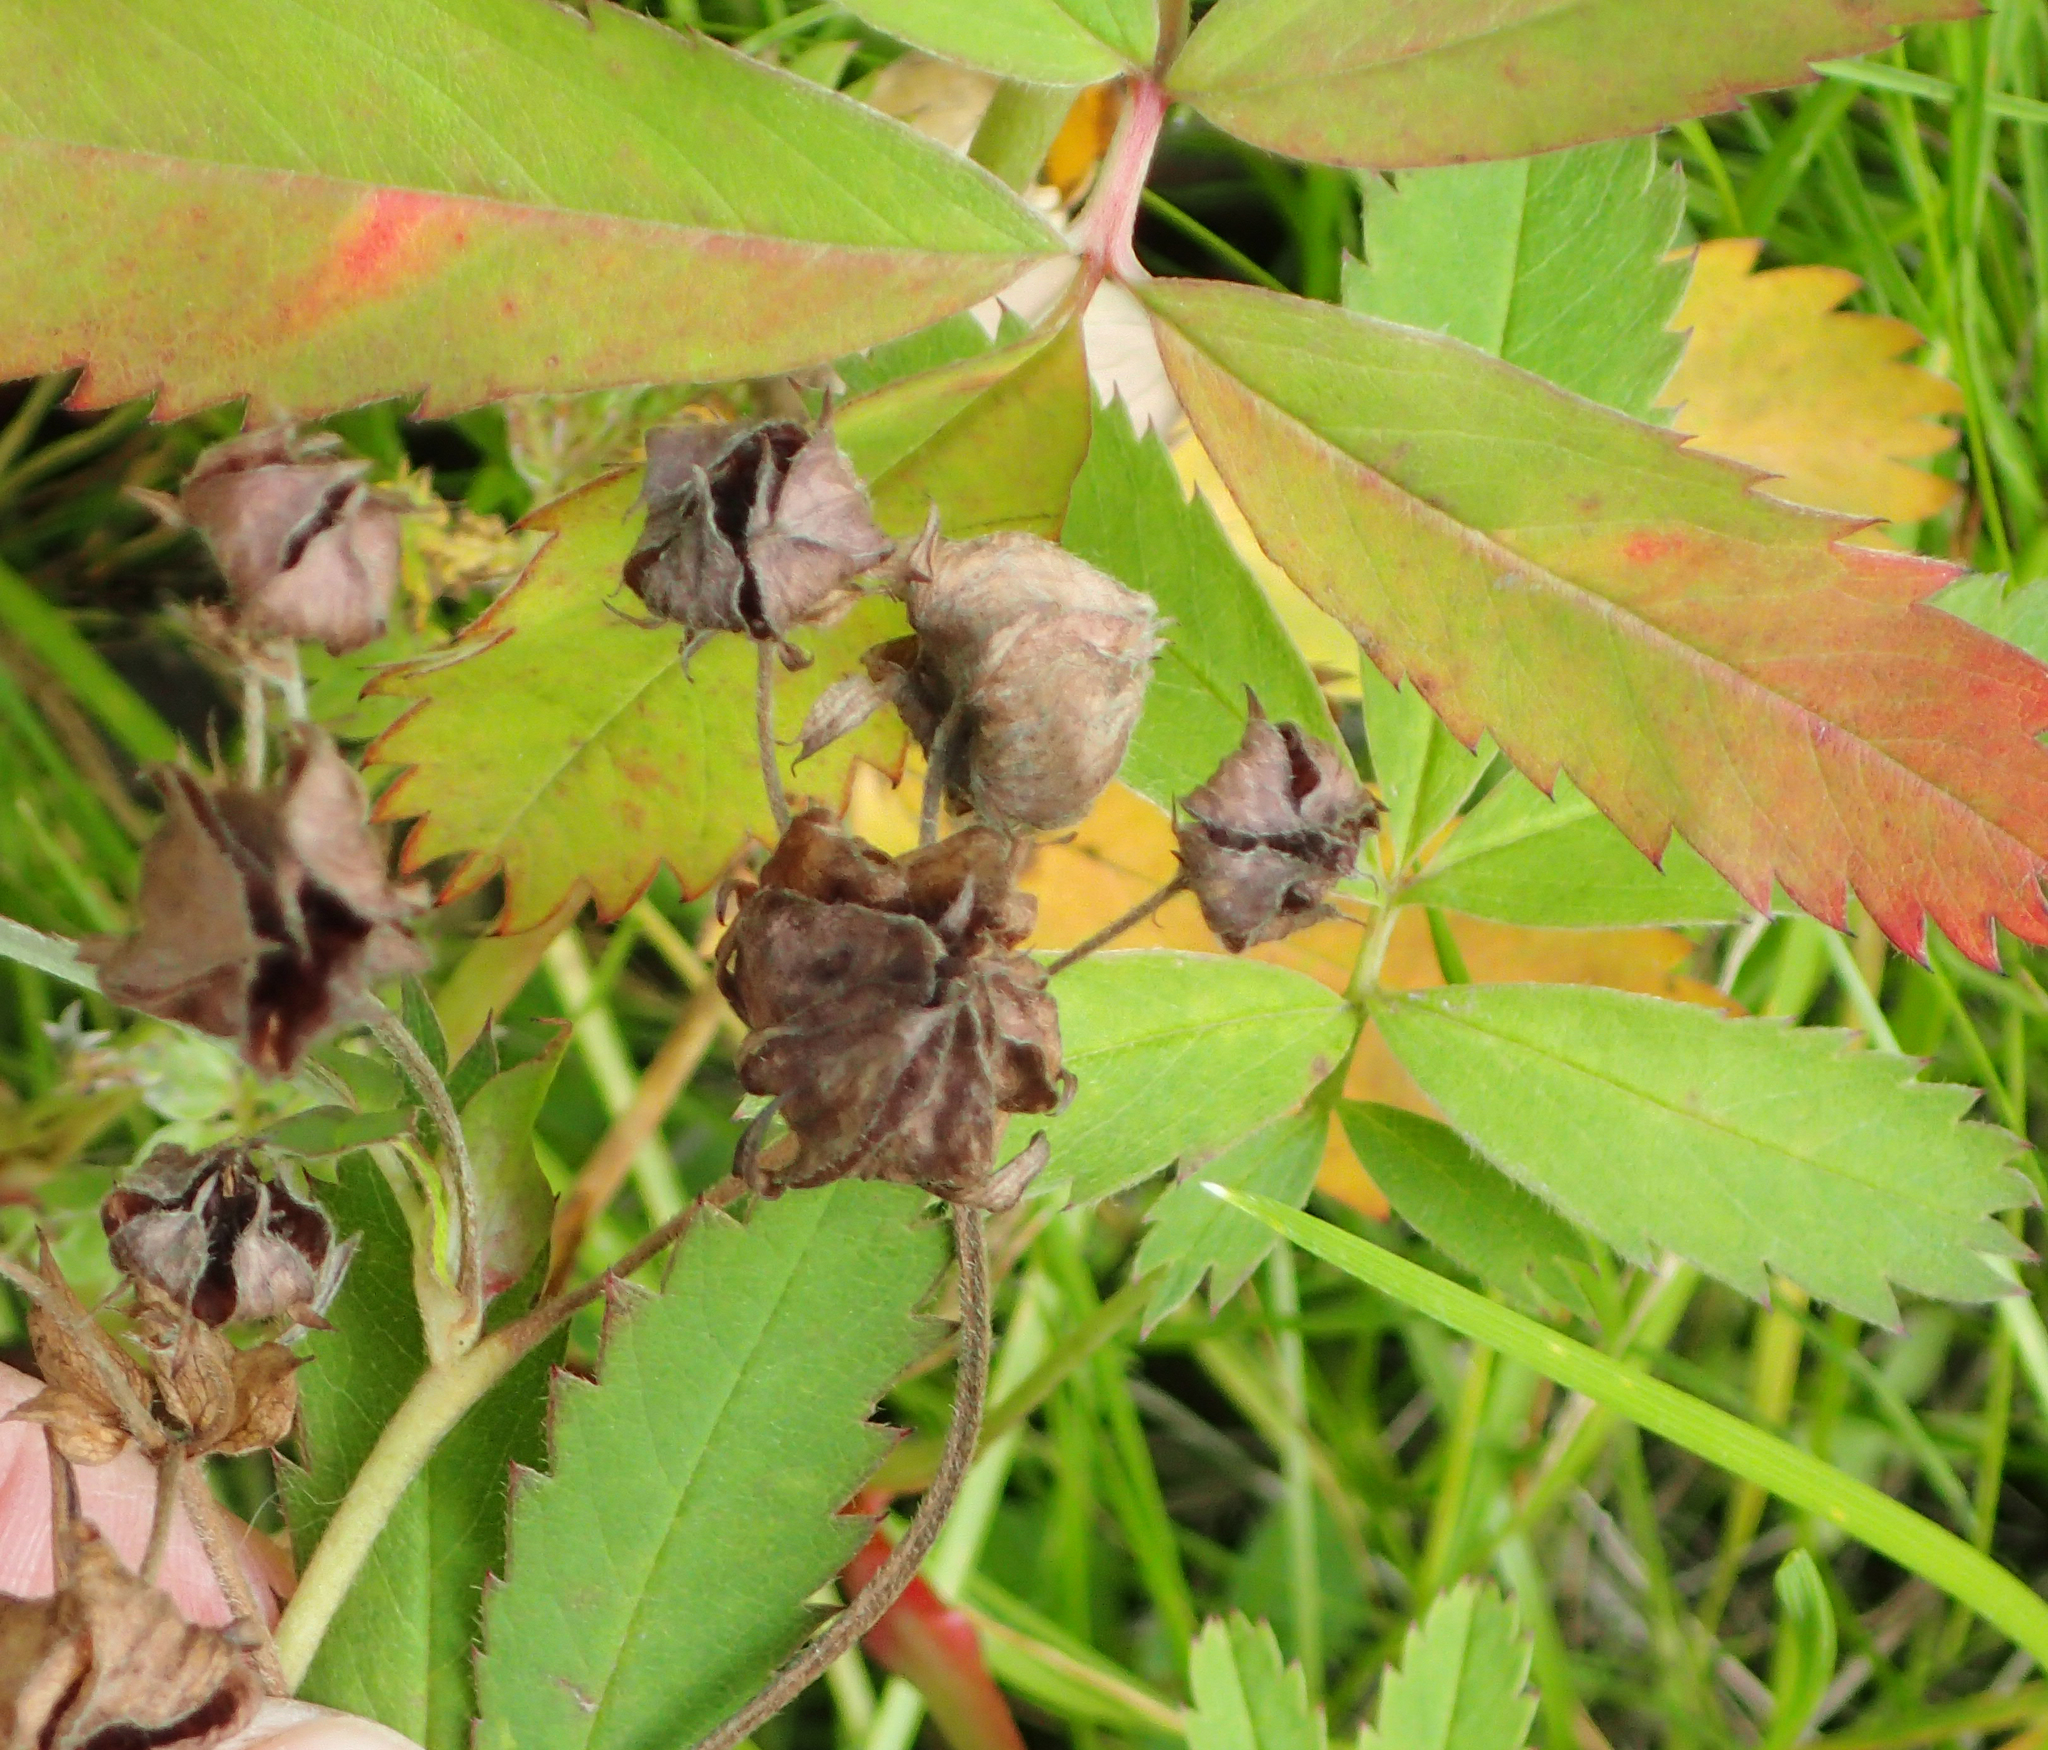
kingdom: Plantae
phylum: Tracheophyta
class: Magnoliopsida
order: Rosales
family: Rosaceae
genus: Comarum
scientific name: Comarum palustre
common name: Marsh cinquefoil
